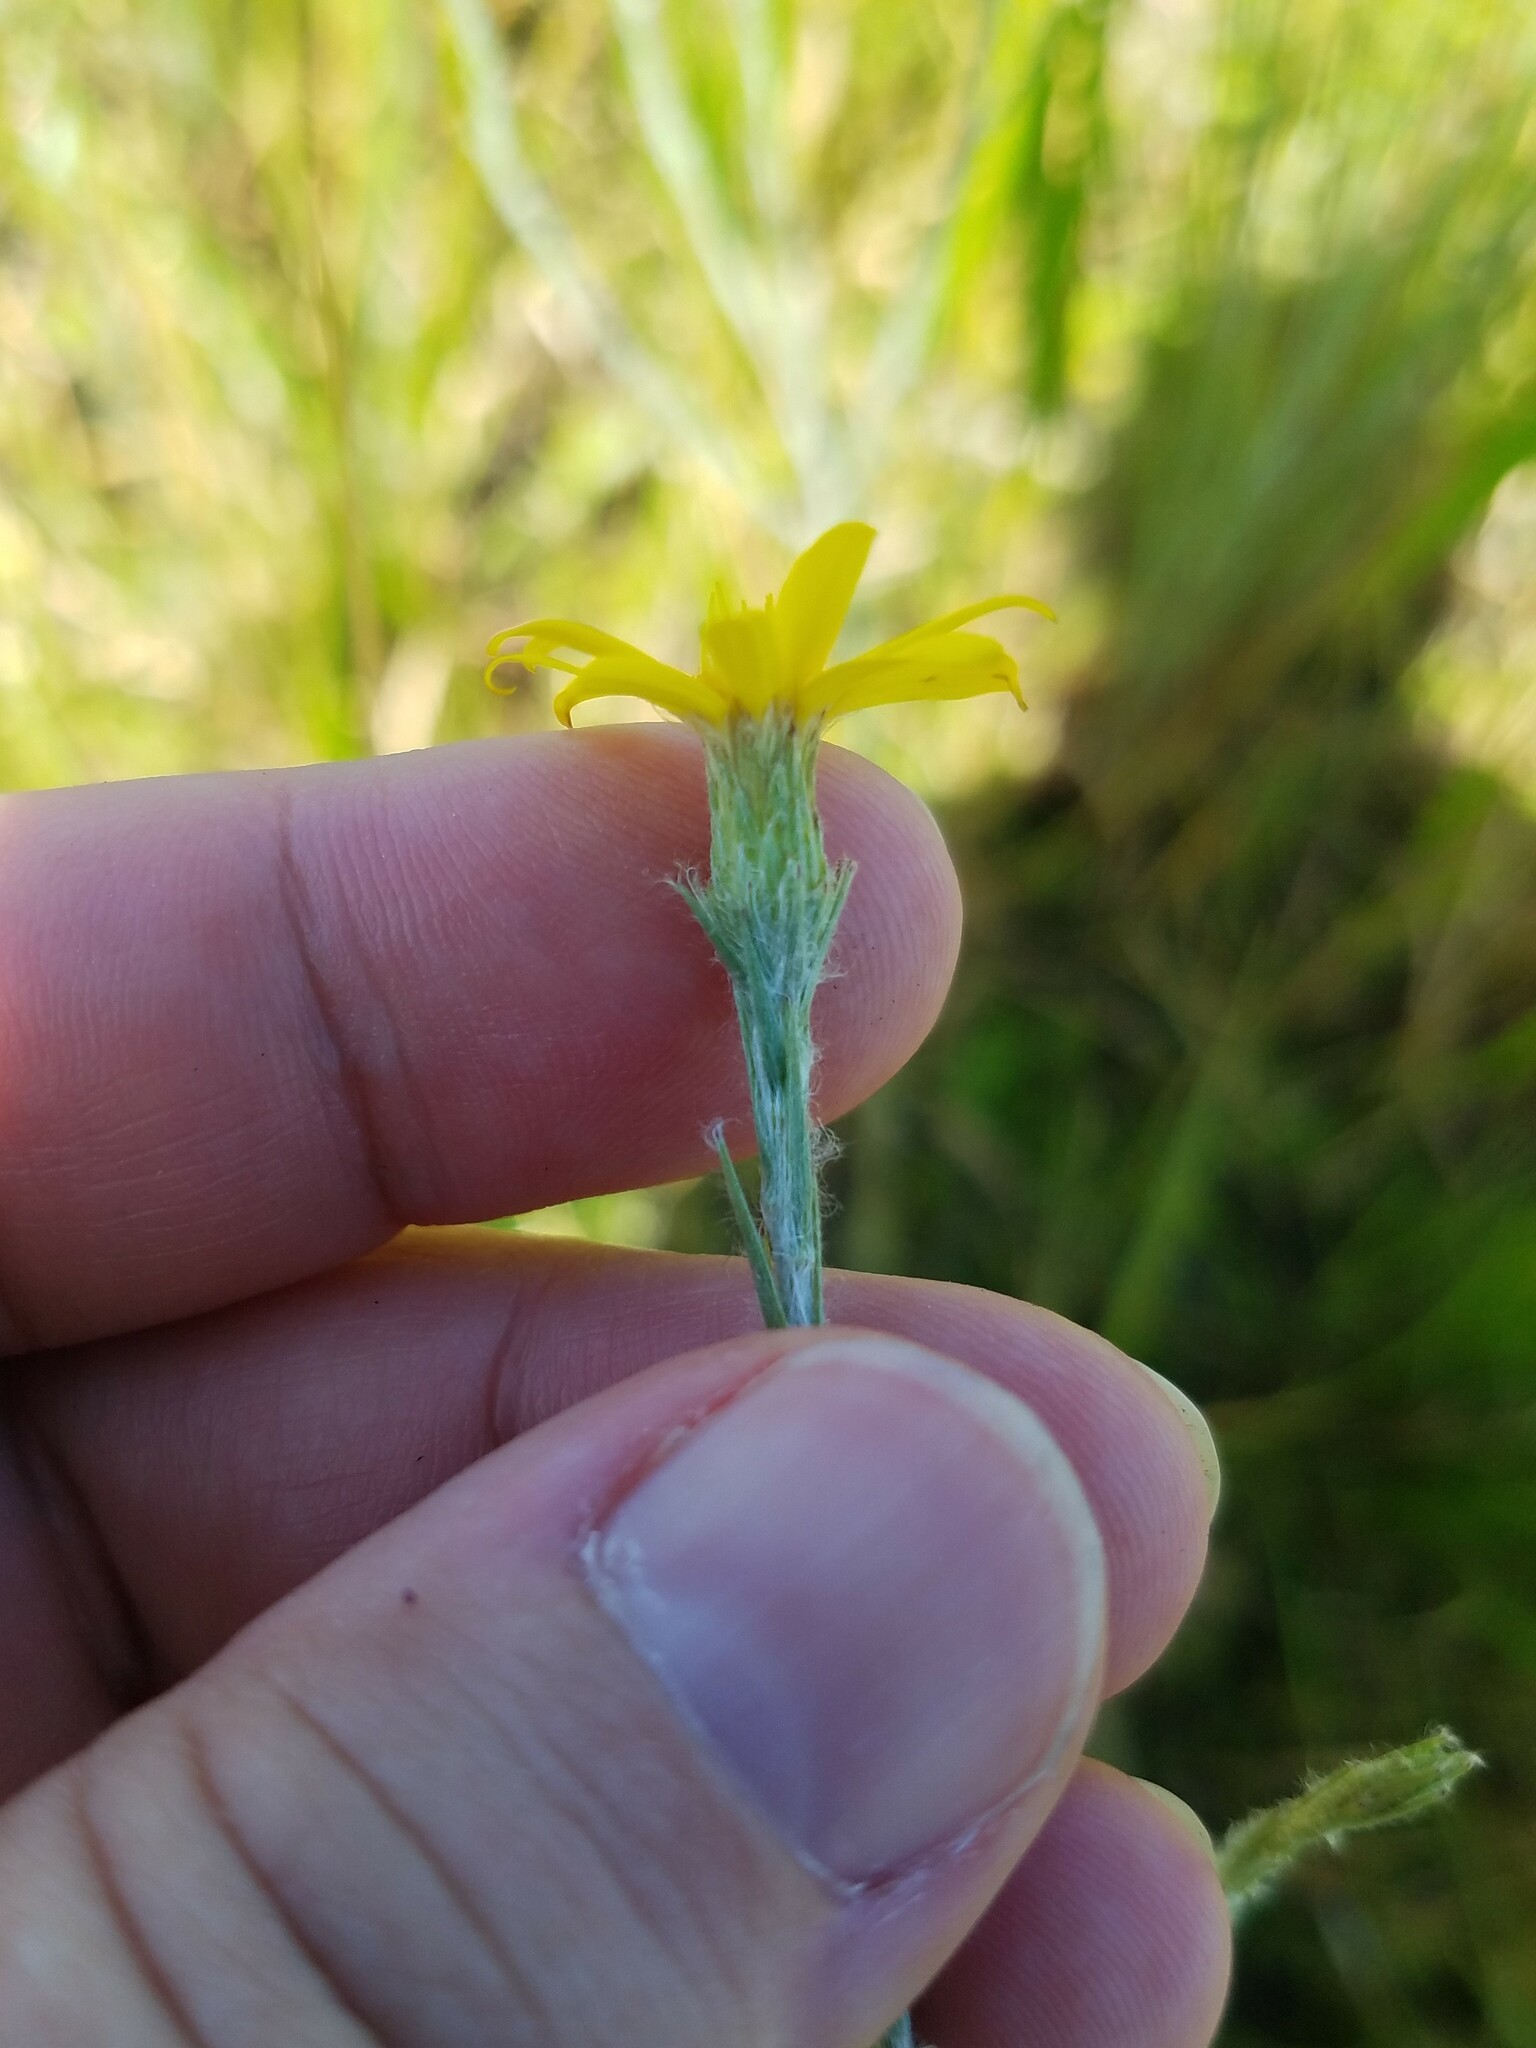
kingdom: Plantae
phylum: Tracheophyta
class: Magnoliopsida
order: Asterales
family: Asteraceae
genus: Pityopsis
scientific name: Pityopsis graminifolia
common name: Grass-leaf golden-aster
